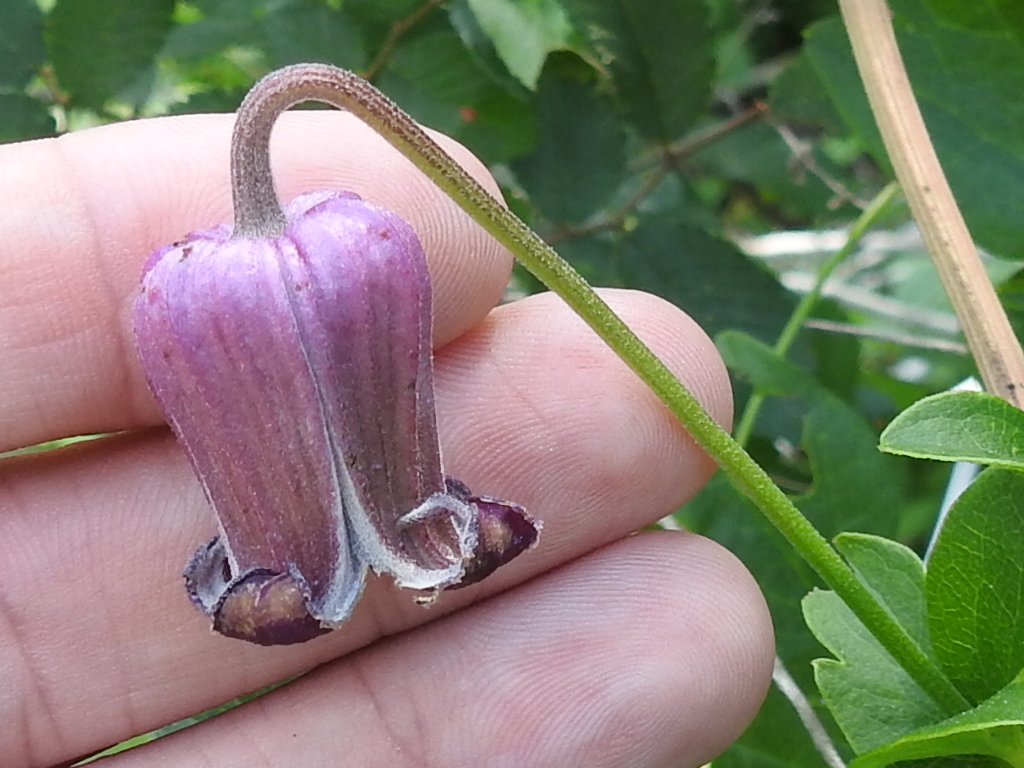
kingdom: Plantae
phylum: Tracheophyta
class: Magnoliopsida
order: Ranunculales
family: Ranunculaceae
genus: Clematis
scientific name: Clematis pitcheri
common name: Bellflower clematis
